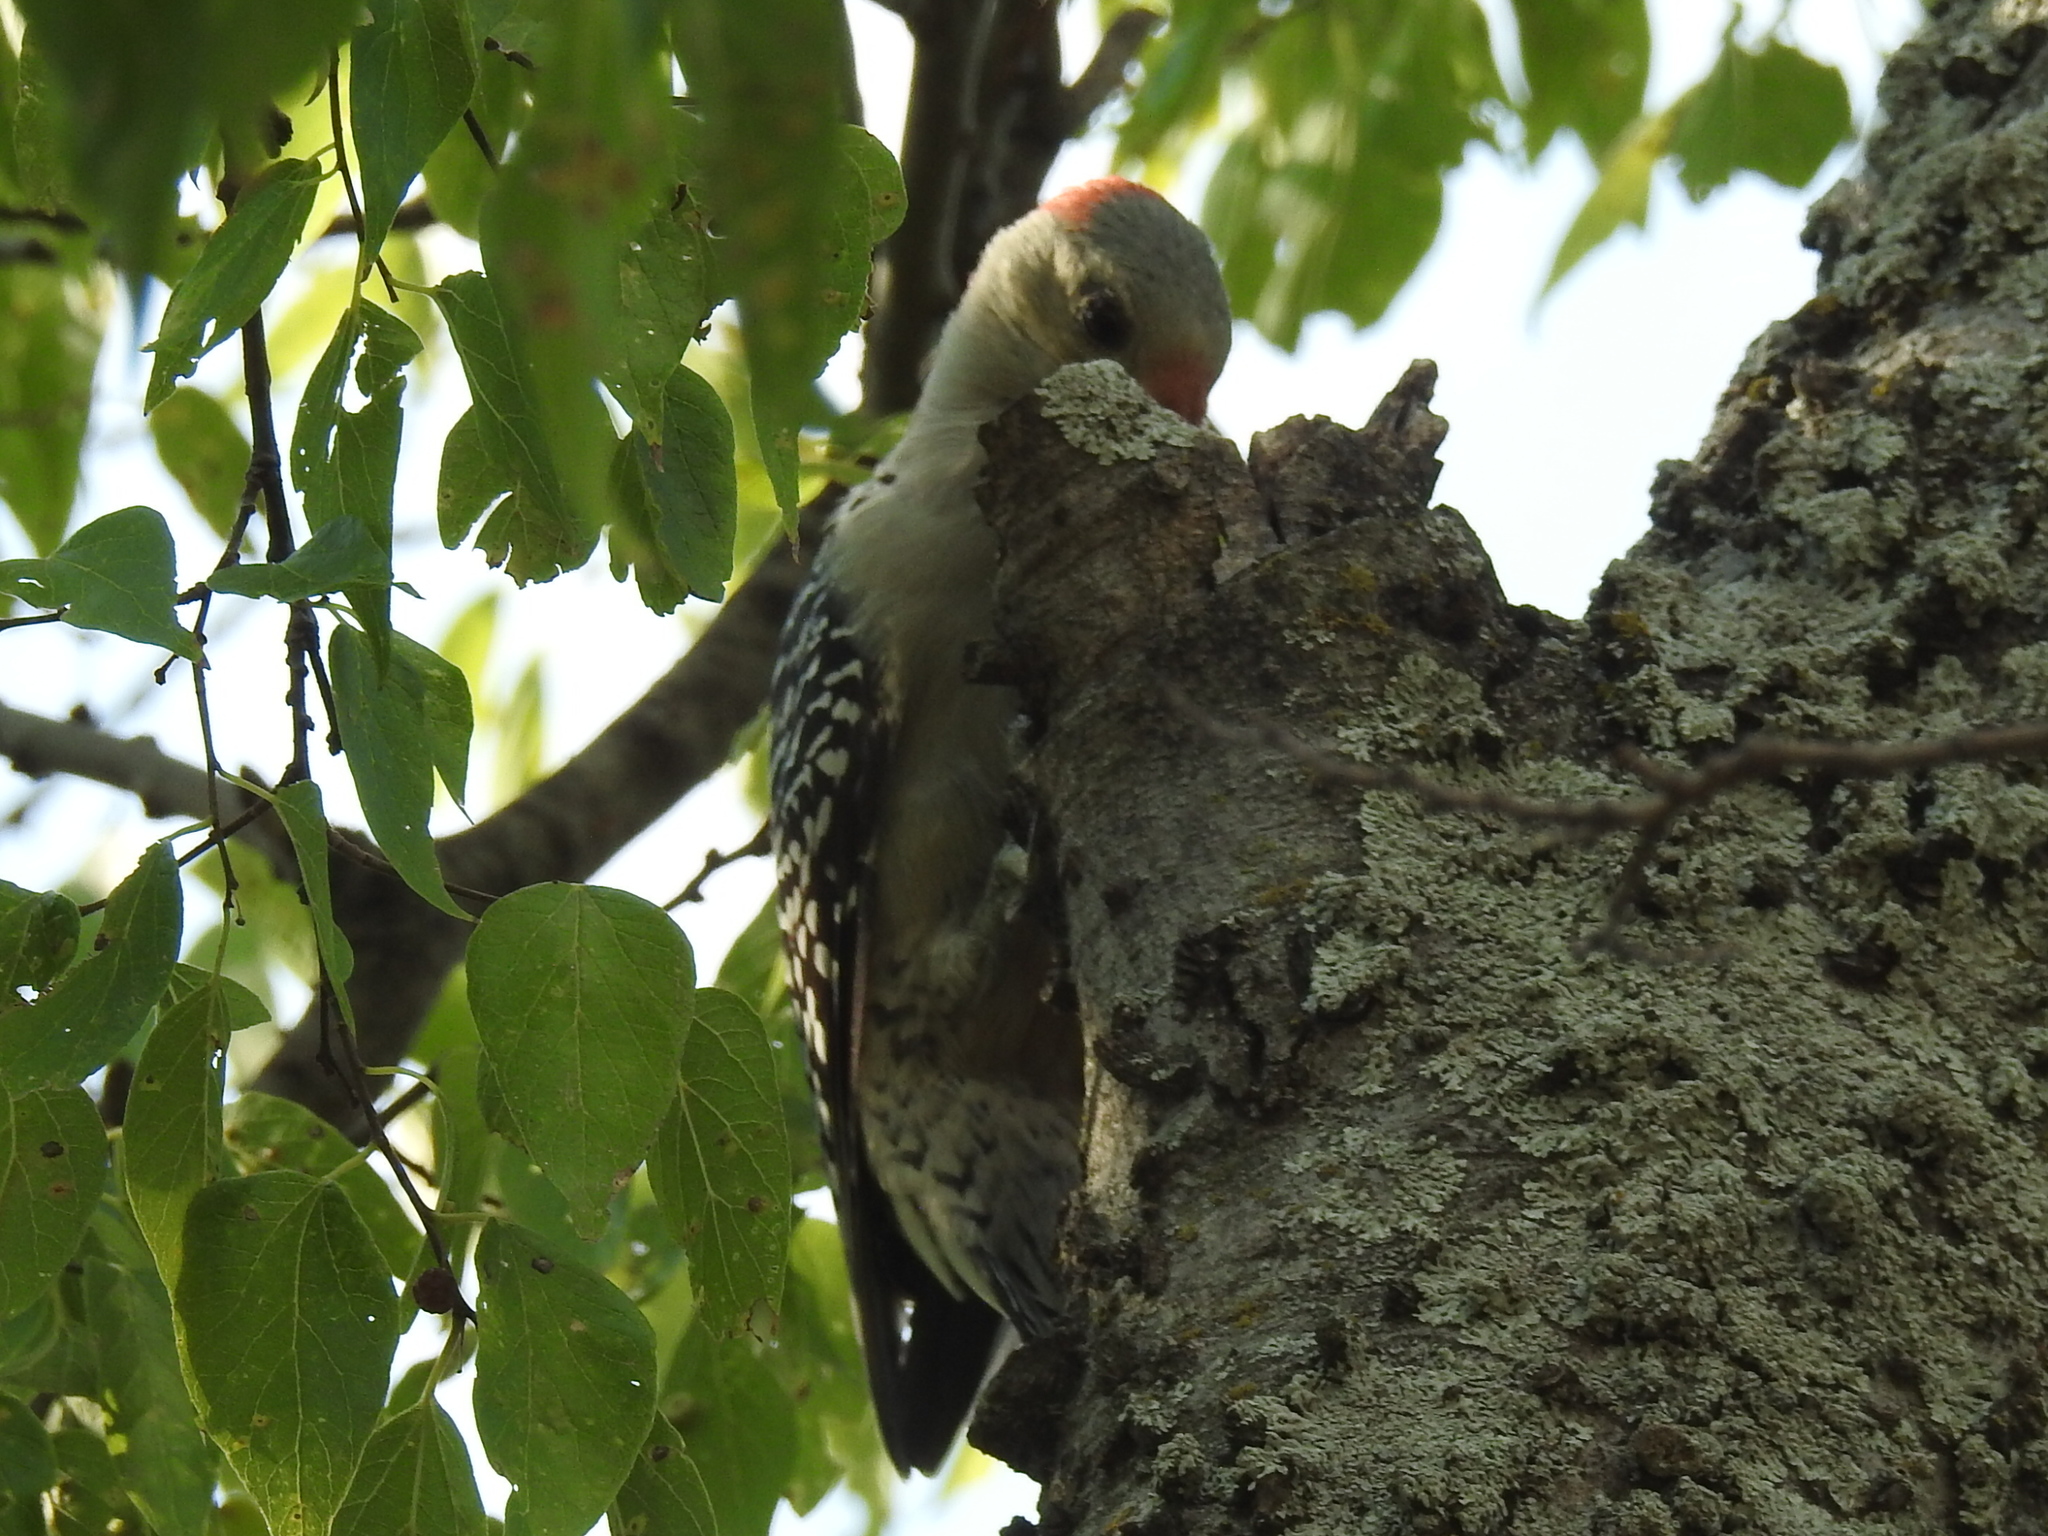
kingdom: Animalia
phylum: Chordata
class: Aves
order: Piciformes
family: Picidae
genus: Melanerpes
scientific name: Melanerpes carolinus
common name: Red-bellied woodpecker
